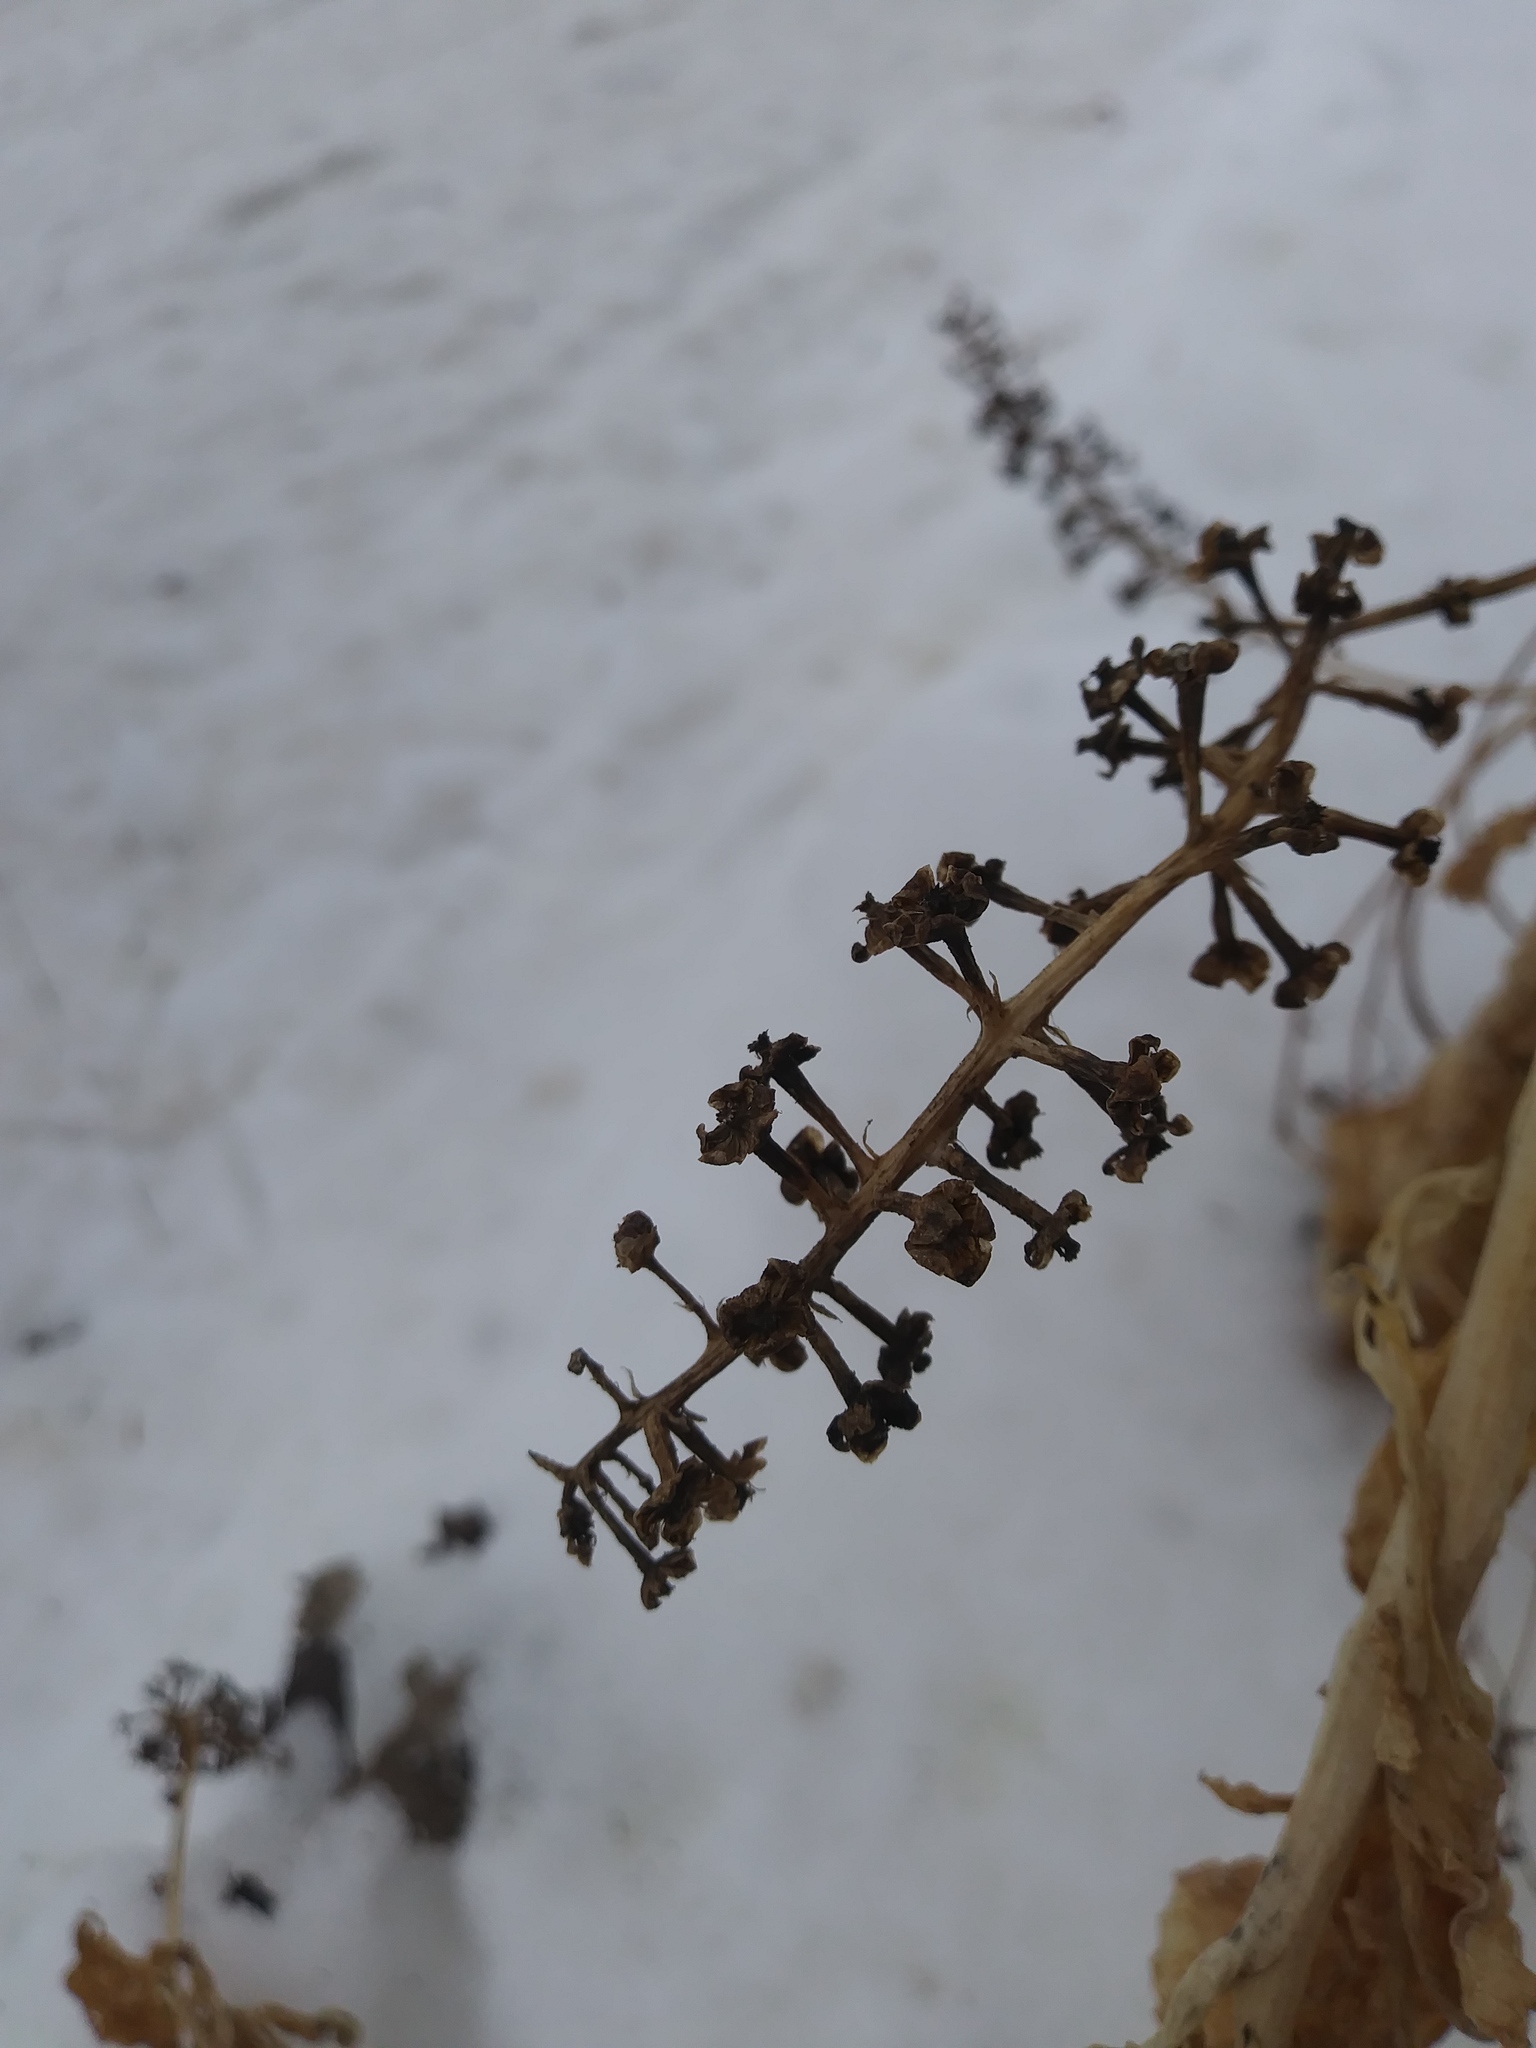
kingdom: Plantae
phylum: Tracheophyta
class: Magnoliopsida
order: Caryophyllales
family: Phytolaccaceae
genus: Phytolacca
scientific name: Phytolacca americana
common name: American pokeweed
